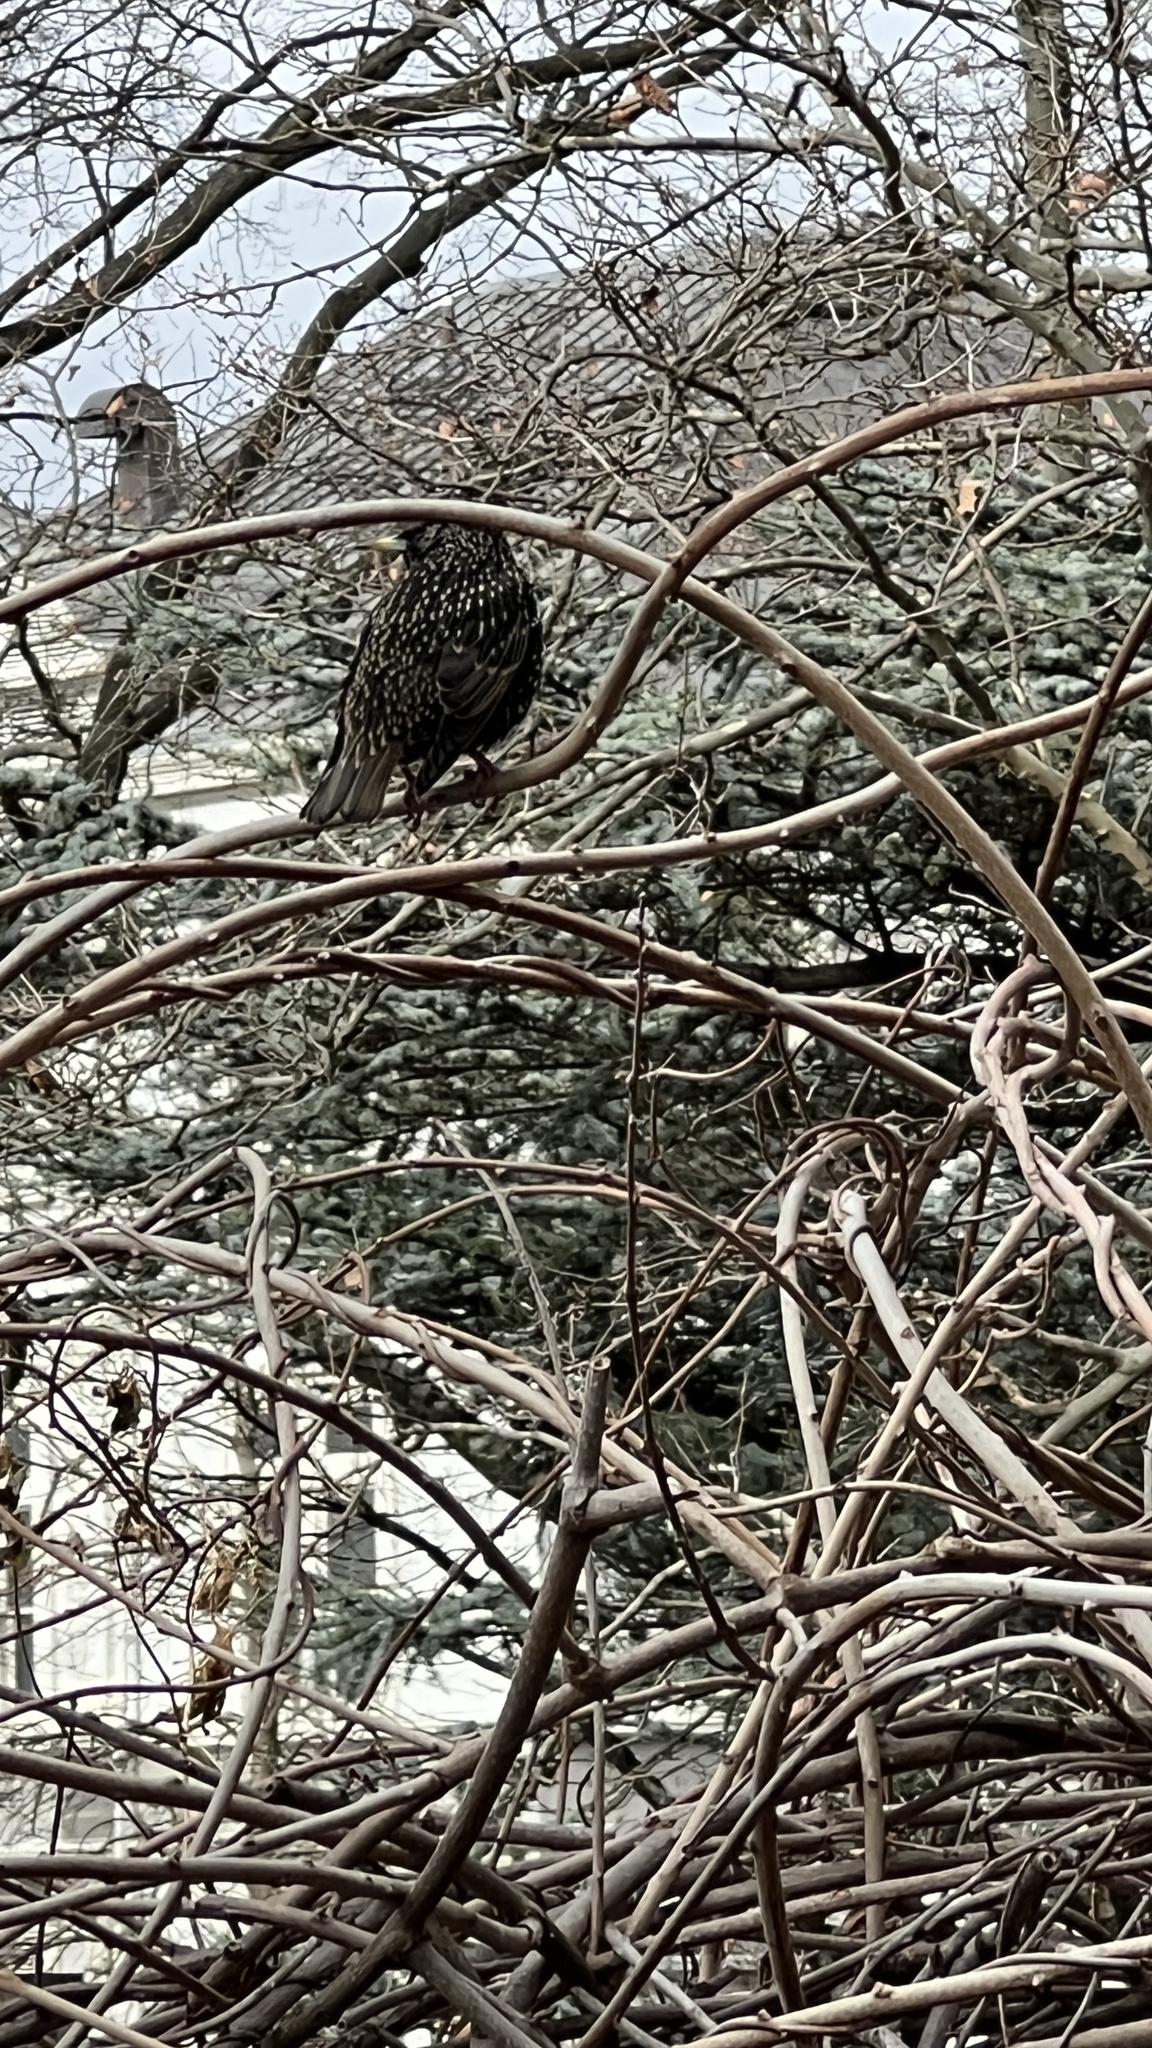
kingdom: Animalia
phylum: Chordata
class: Aves
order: Passeriformes
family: Sturnidae
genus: Sturnus
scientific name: Sturnus vulgaris
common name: Common starling
